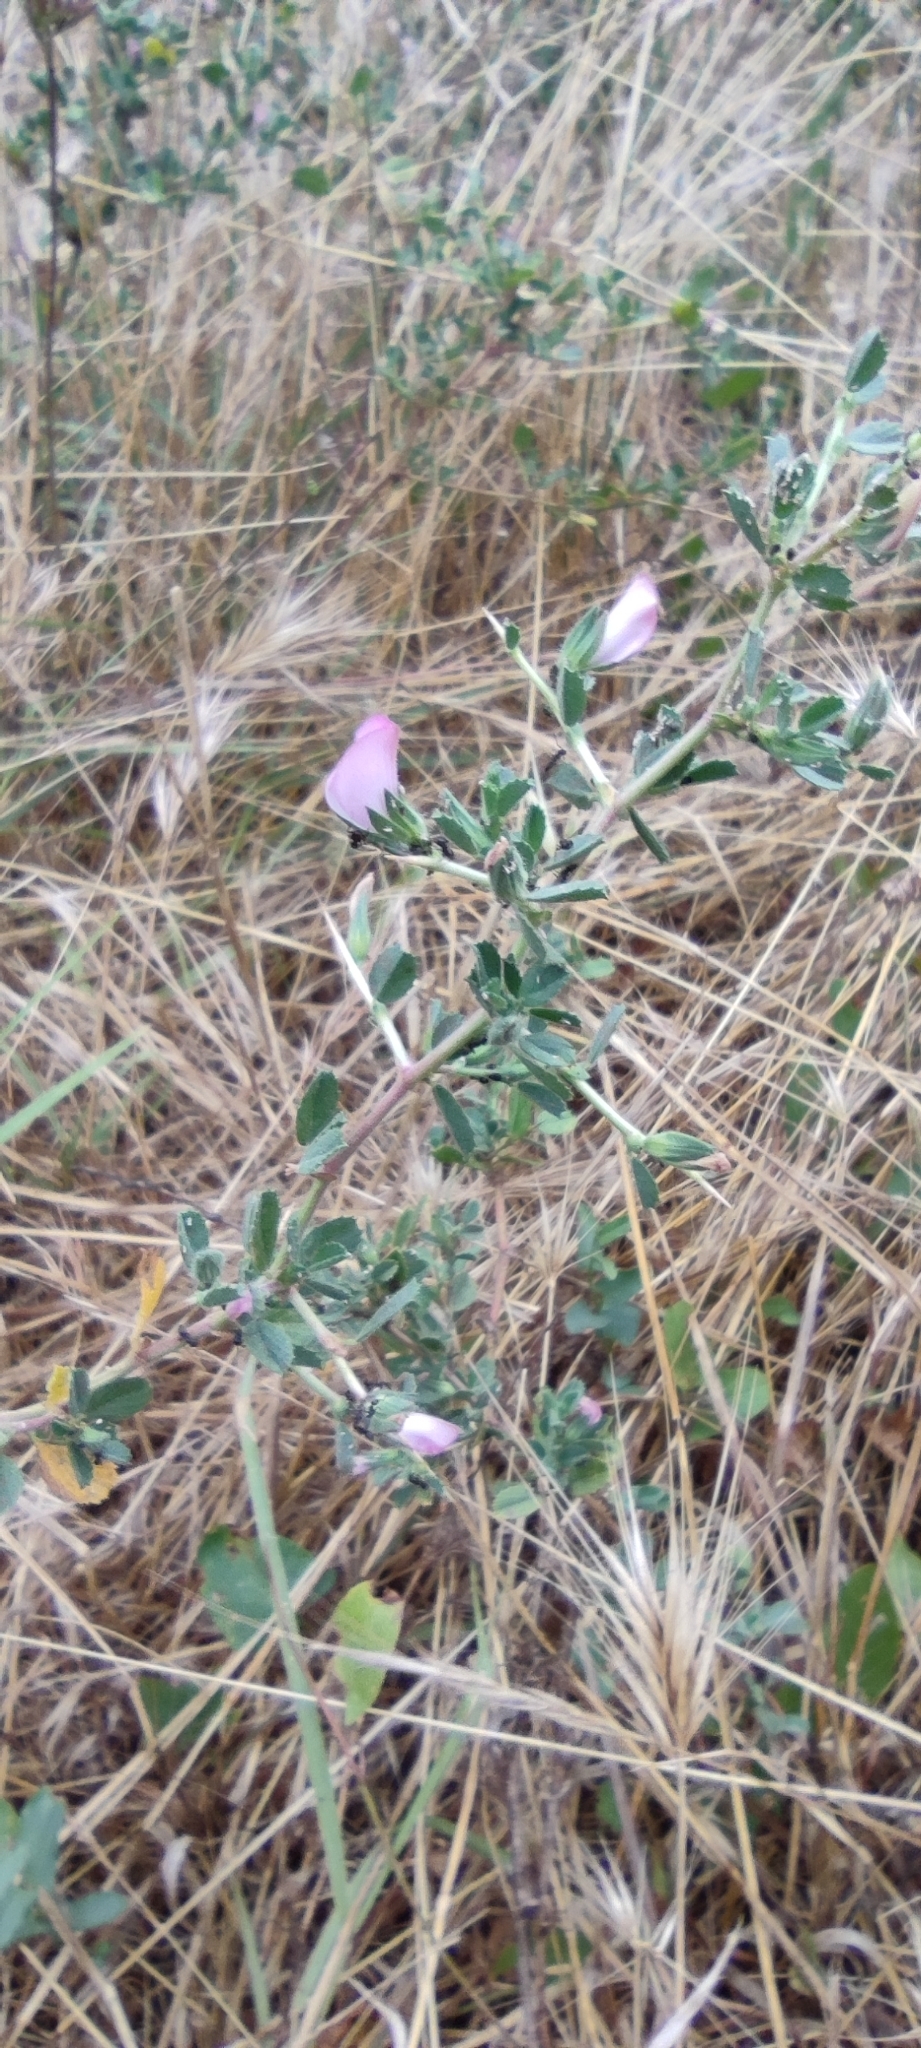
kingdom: Plantae
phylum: Tracheophyta
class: Magnoliopsida
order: Fabales
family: Fabaceae
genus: Ononis
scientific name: Ononis spinosa
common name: Spiny restharrow
